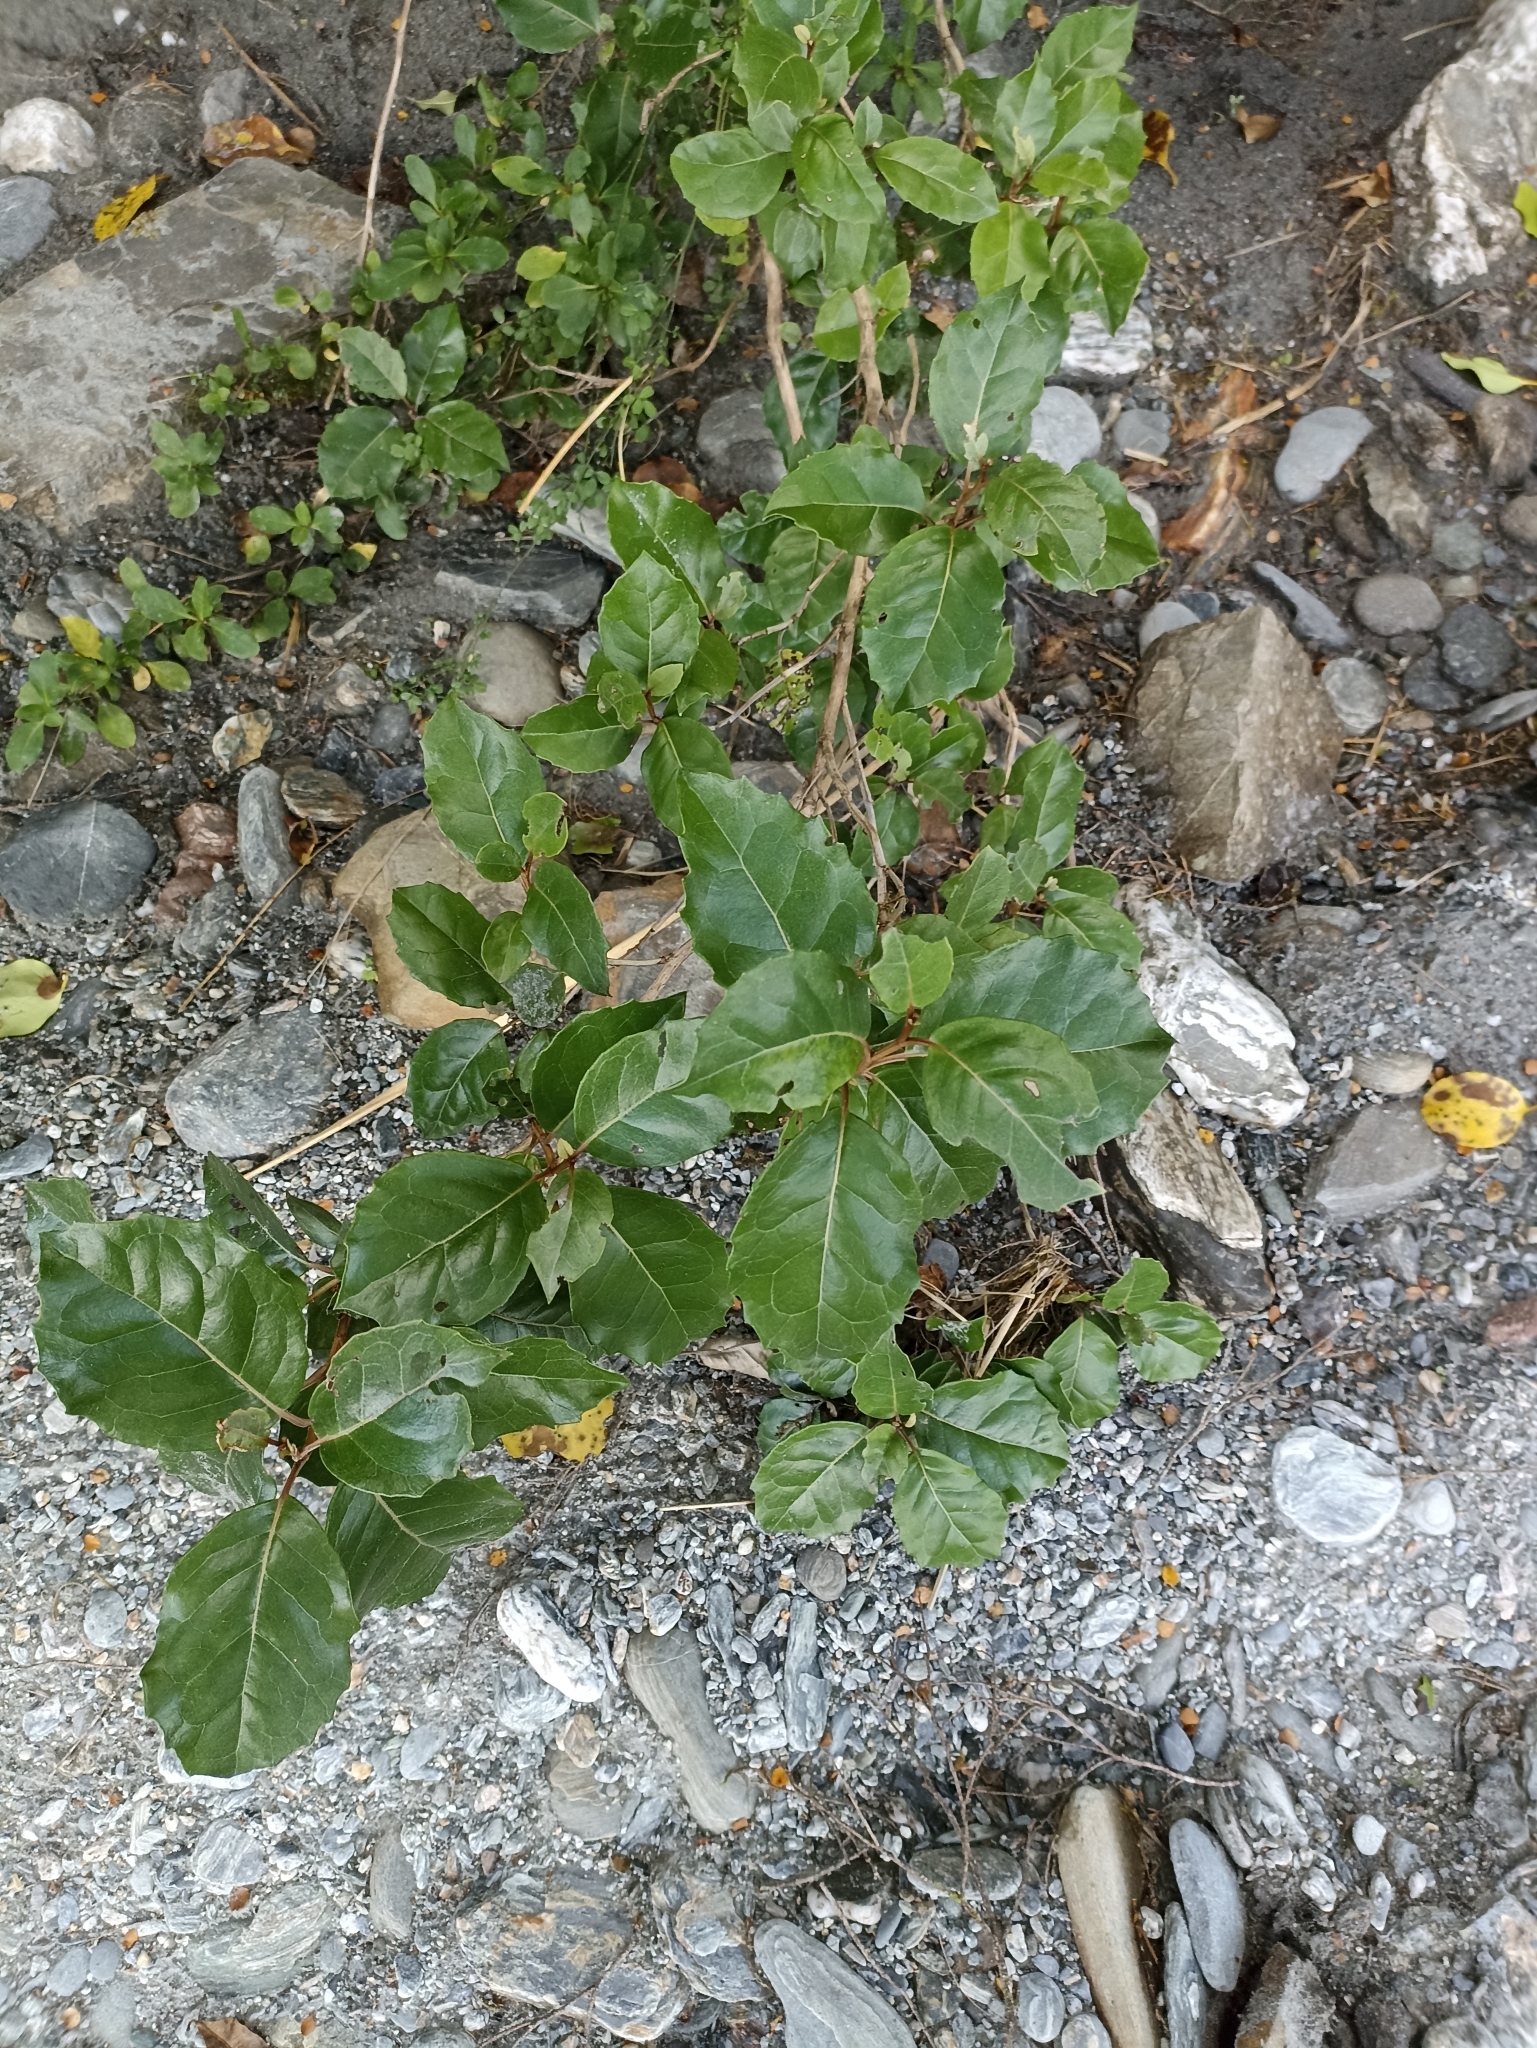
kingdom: Plantae
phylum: Tracheophyta
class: Magnoliopsida
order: Asterales
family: Asteraceae
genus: Olearia
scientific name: Olearia arborescens
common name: Glossy tree daisy
